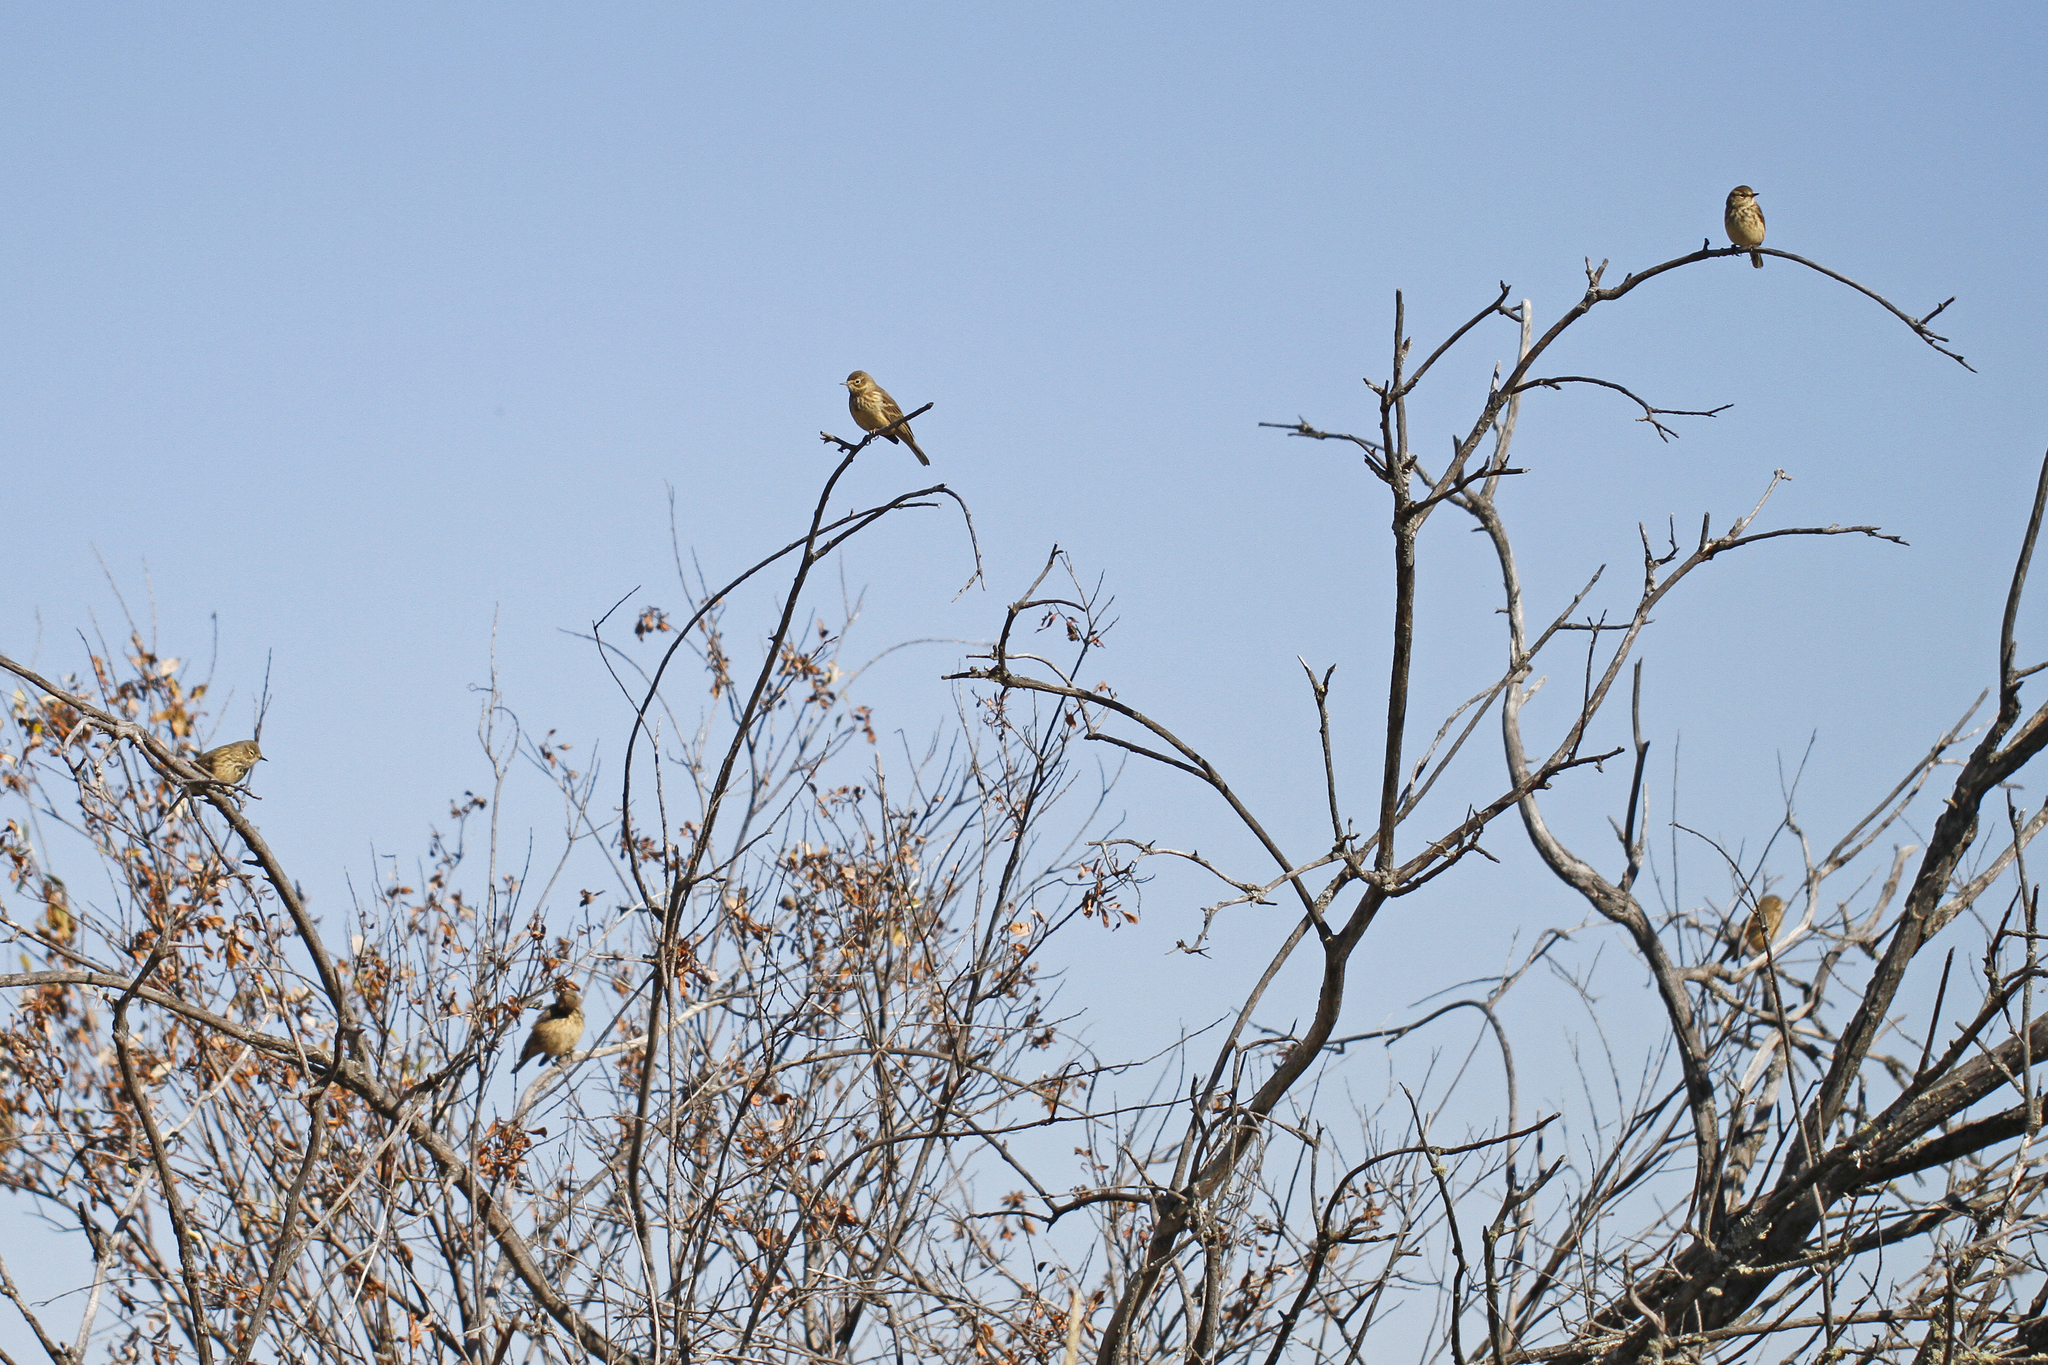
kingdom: Animalia
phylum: Chordata
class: Aves
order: Passeriformes
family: Motacillidae
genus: Anthus
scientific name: Anthus rubescens
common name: Buff-bellied pipit
